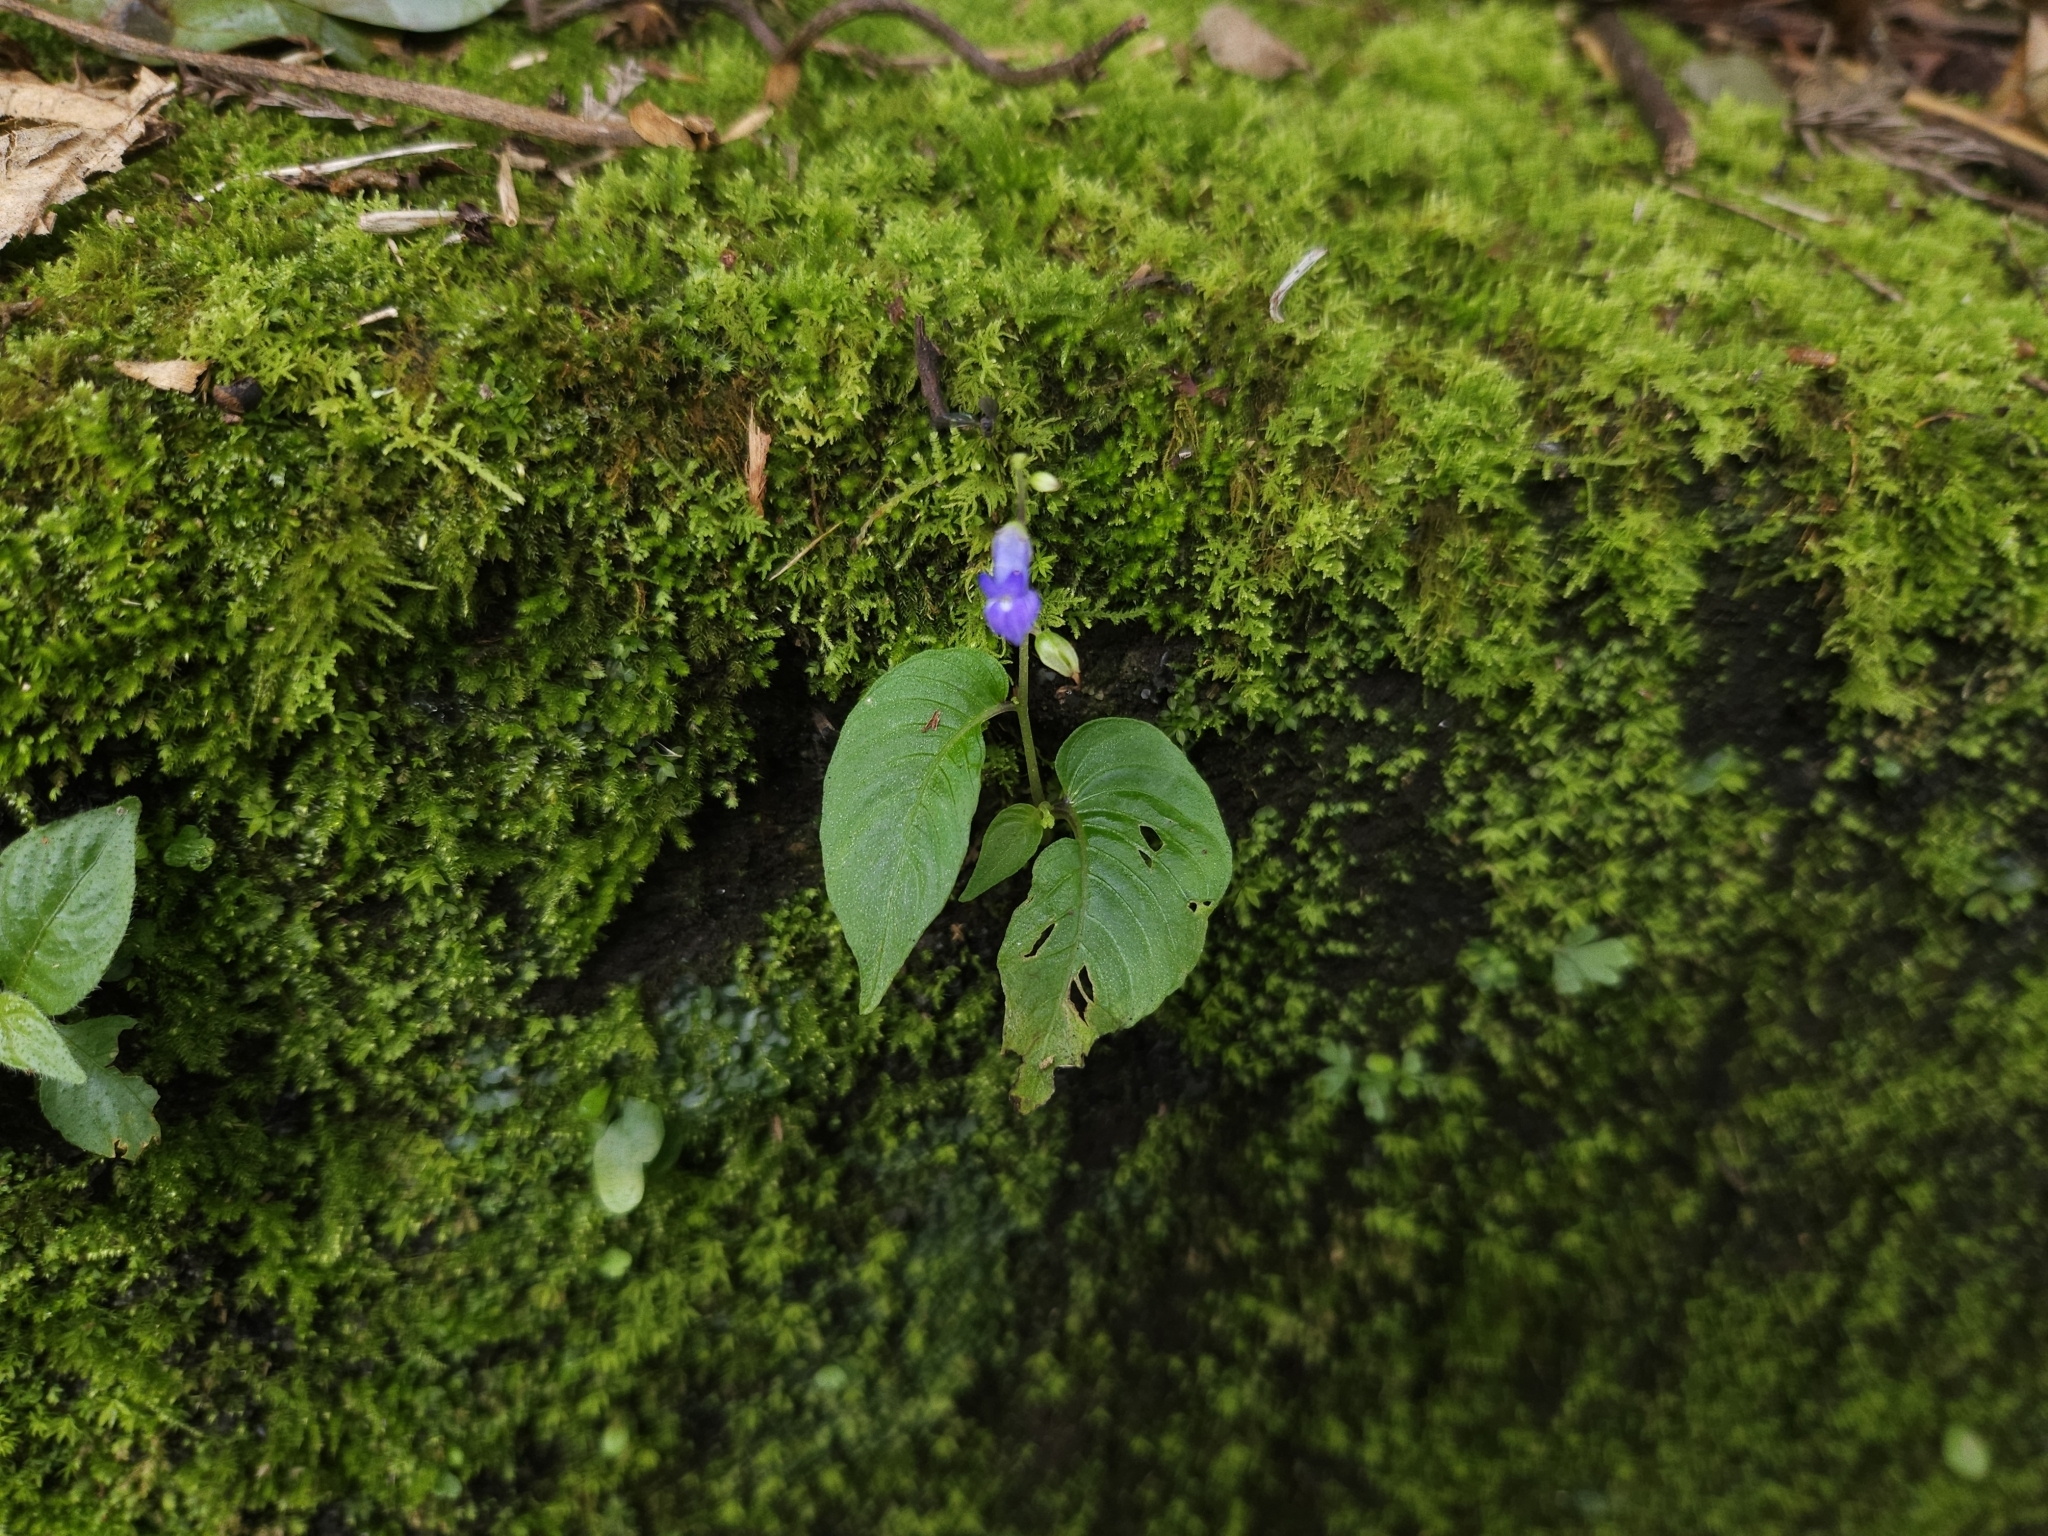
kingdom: Plantae
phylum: Tracheophyta
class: Magnoliopsida
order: Lamiales
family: Gesneriaceae
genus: Rhynchoglossum
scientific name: Rhynchoglossum obliquum
